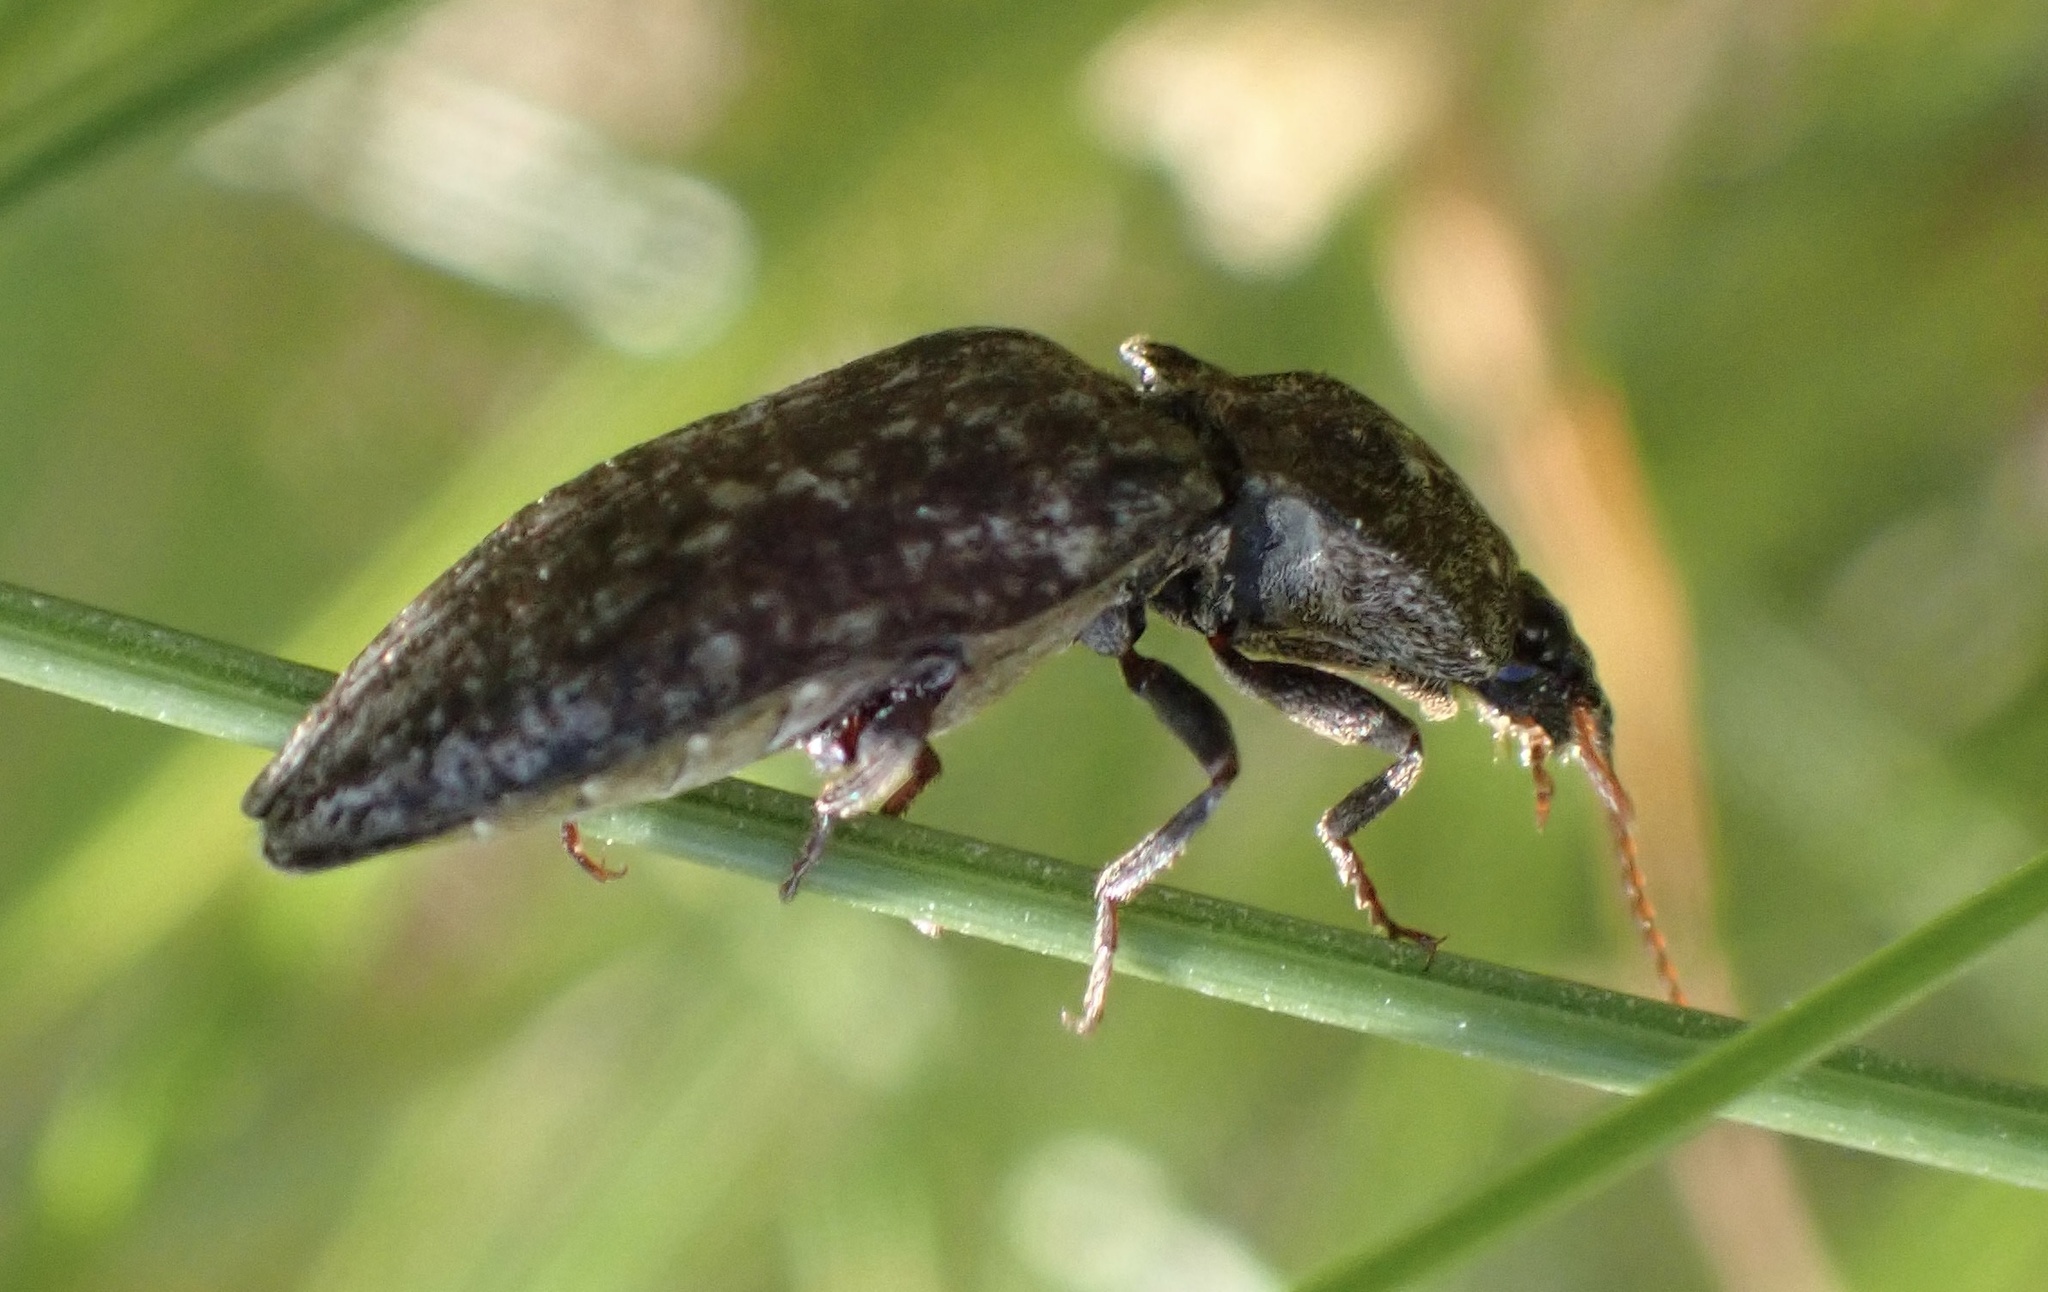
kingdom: Animalia
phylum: Arthropoda
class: Insecta
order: Coleoptera
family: Elateridae
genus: Agrypnus
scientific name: Agrypnus murinus
